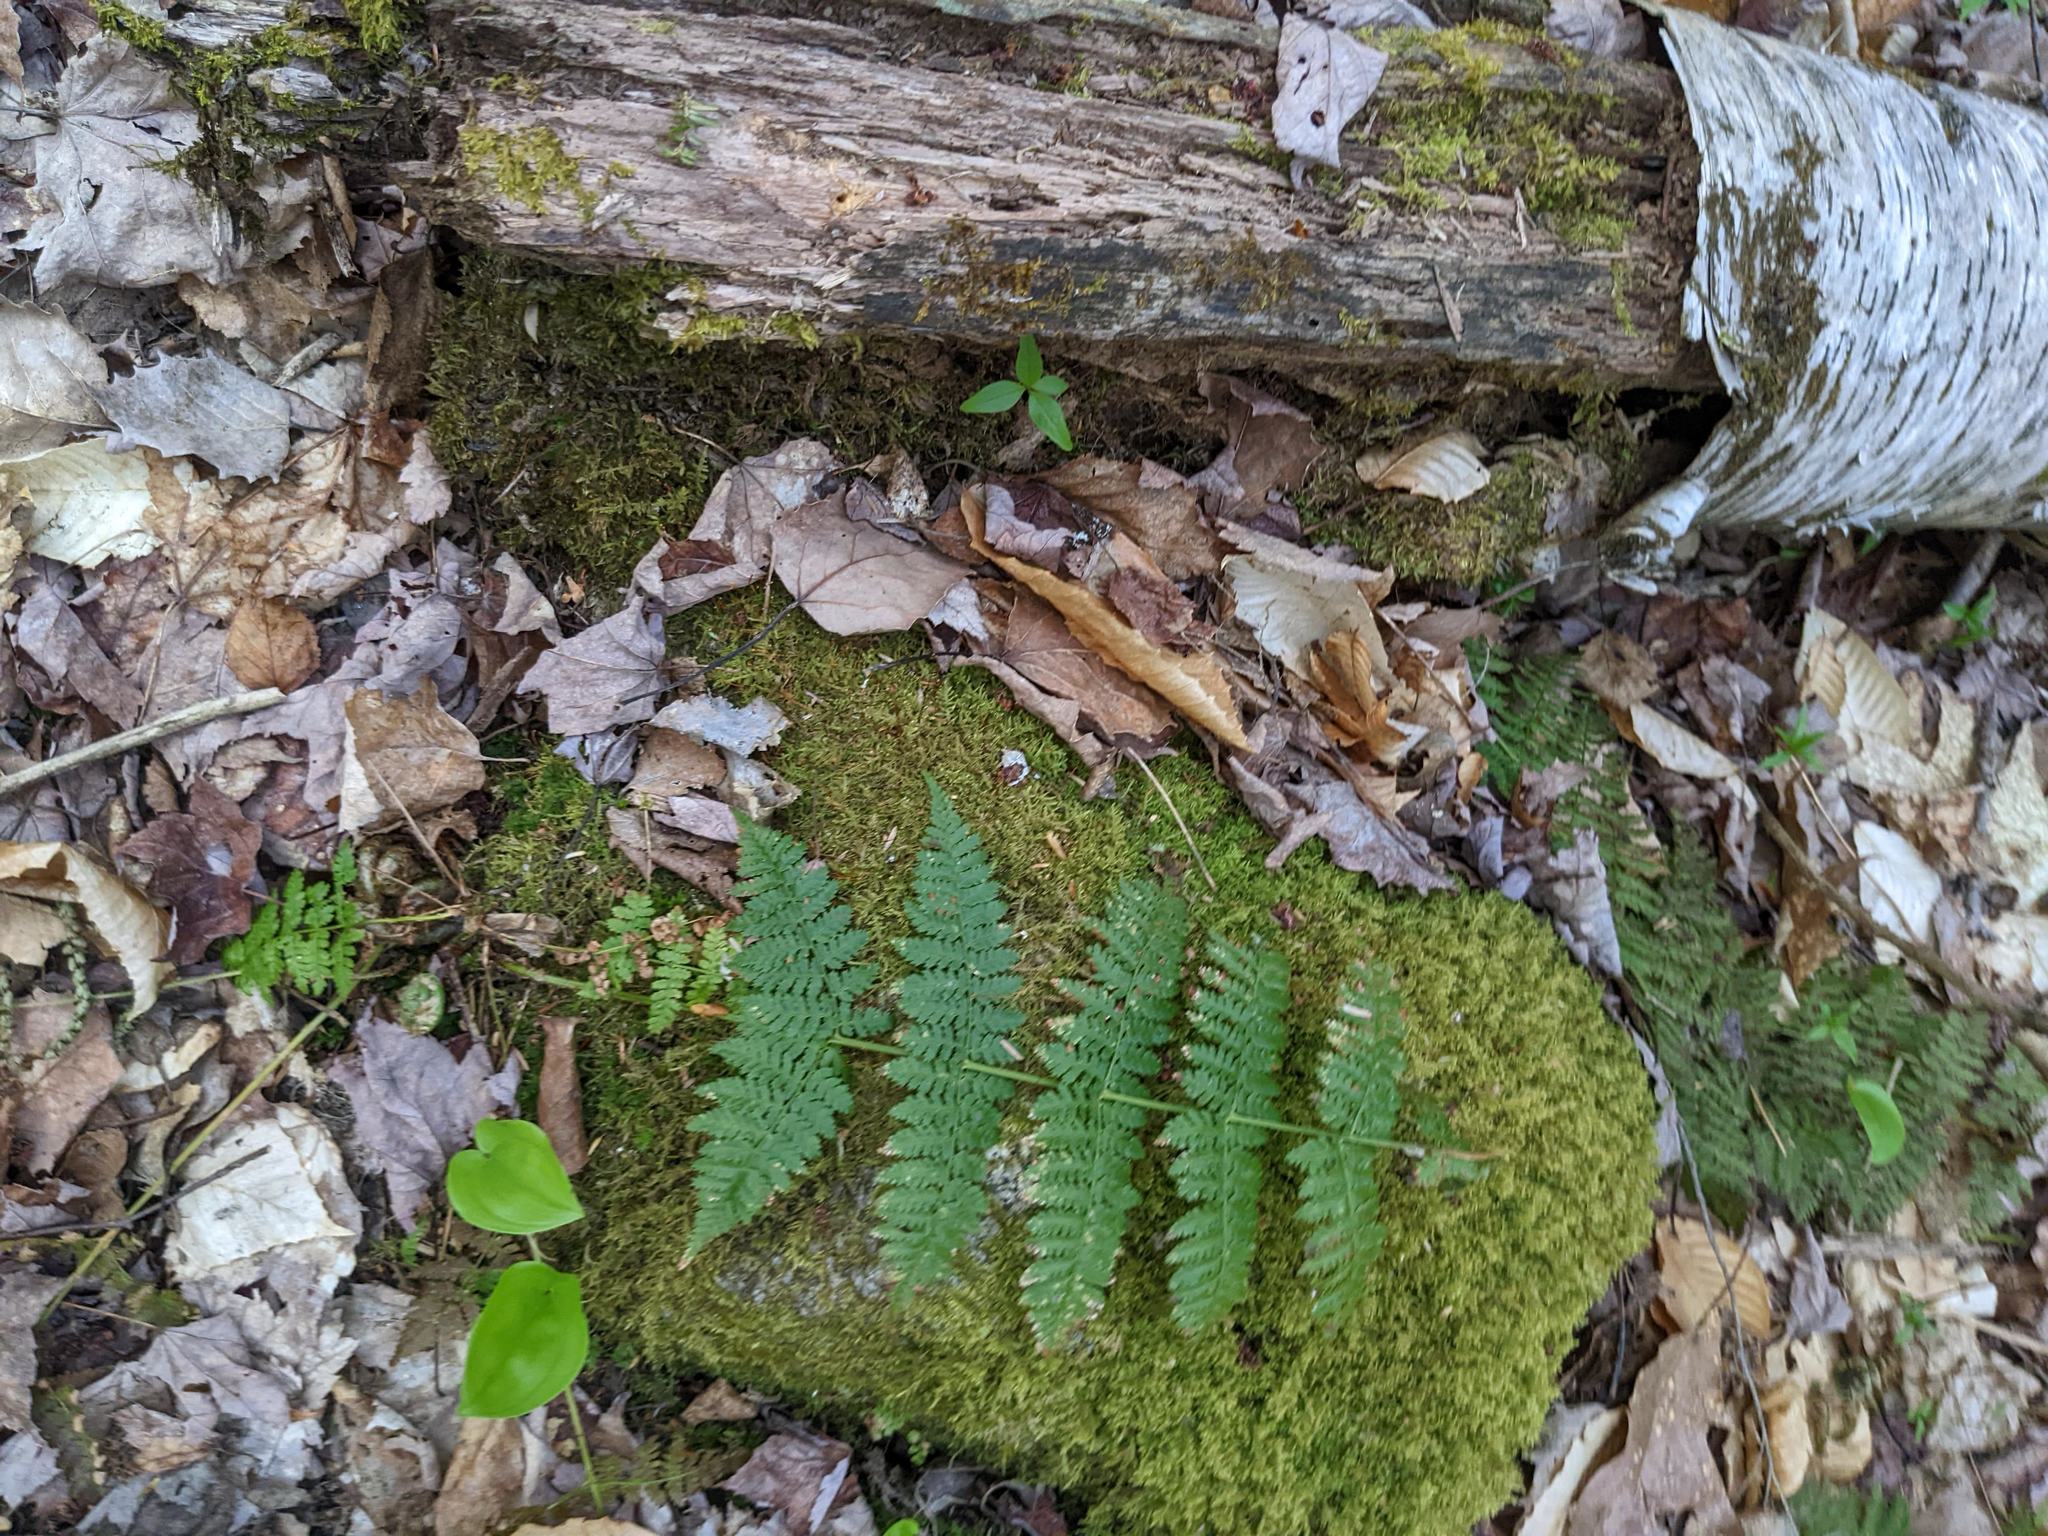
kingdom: Plantae
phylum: Tracheophyta
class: Liliopsida
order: Asparagales
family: Asparagaceae
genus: Maianthemum
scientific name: Maianthemum canadense
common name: False lily-of-the-valley
